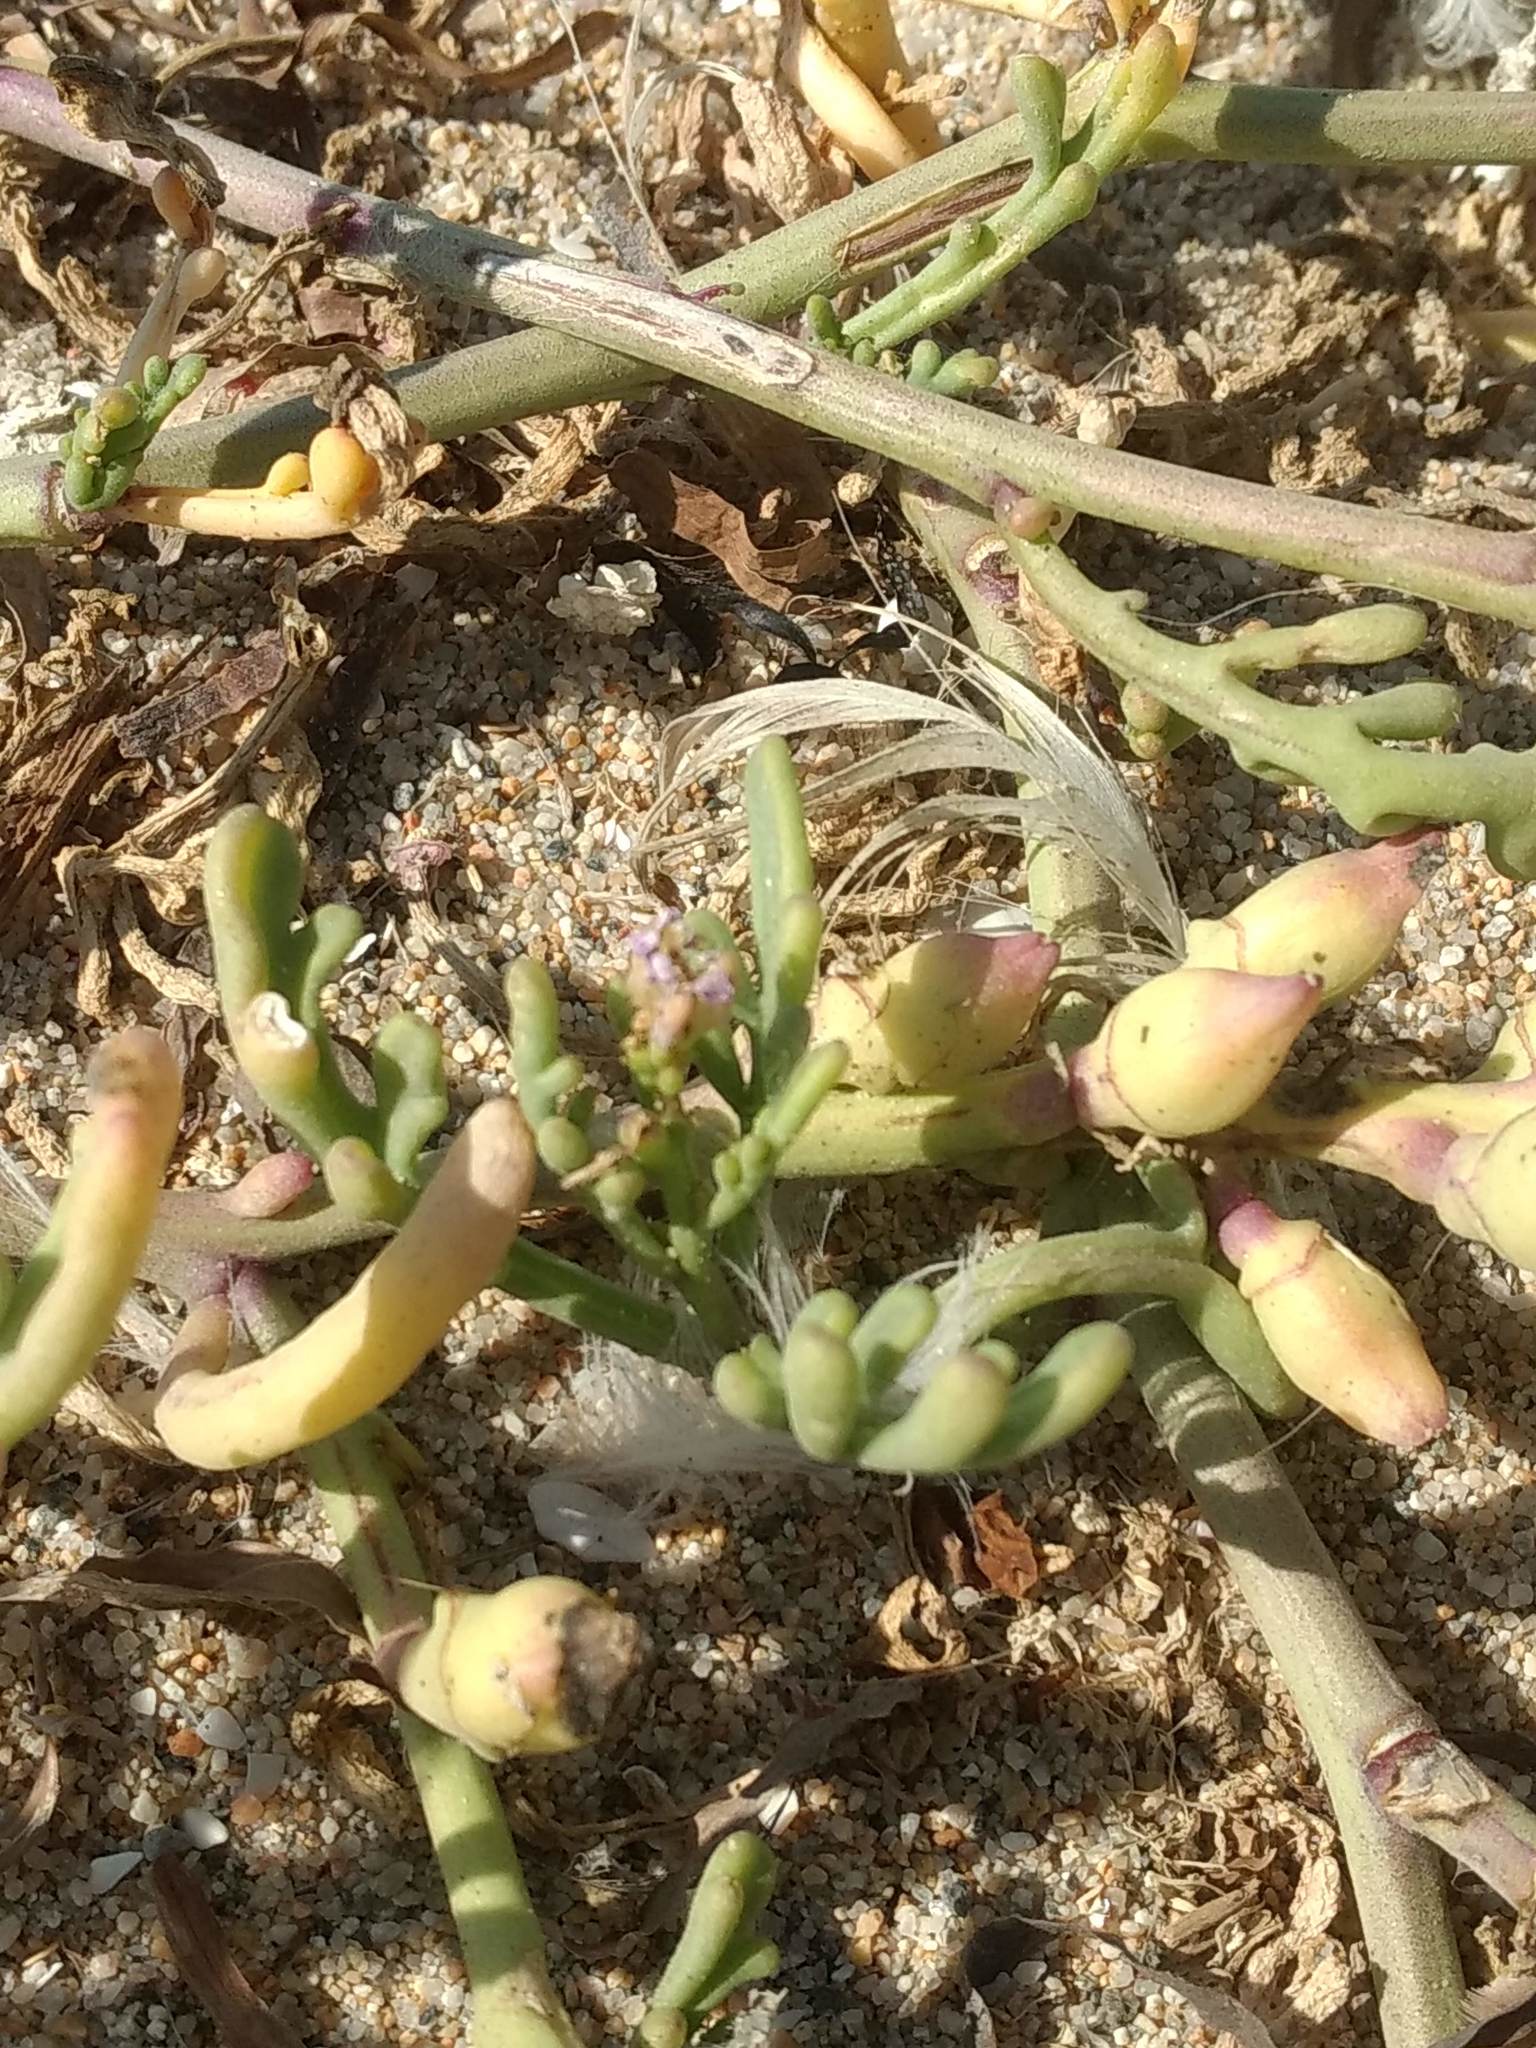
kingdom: Plantae
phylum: Tracheophyta
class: Magnoliopsida
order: Brassicales
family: Brassicaceae
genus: Cakile
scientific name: Cakile maritima
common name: Sea rocket
